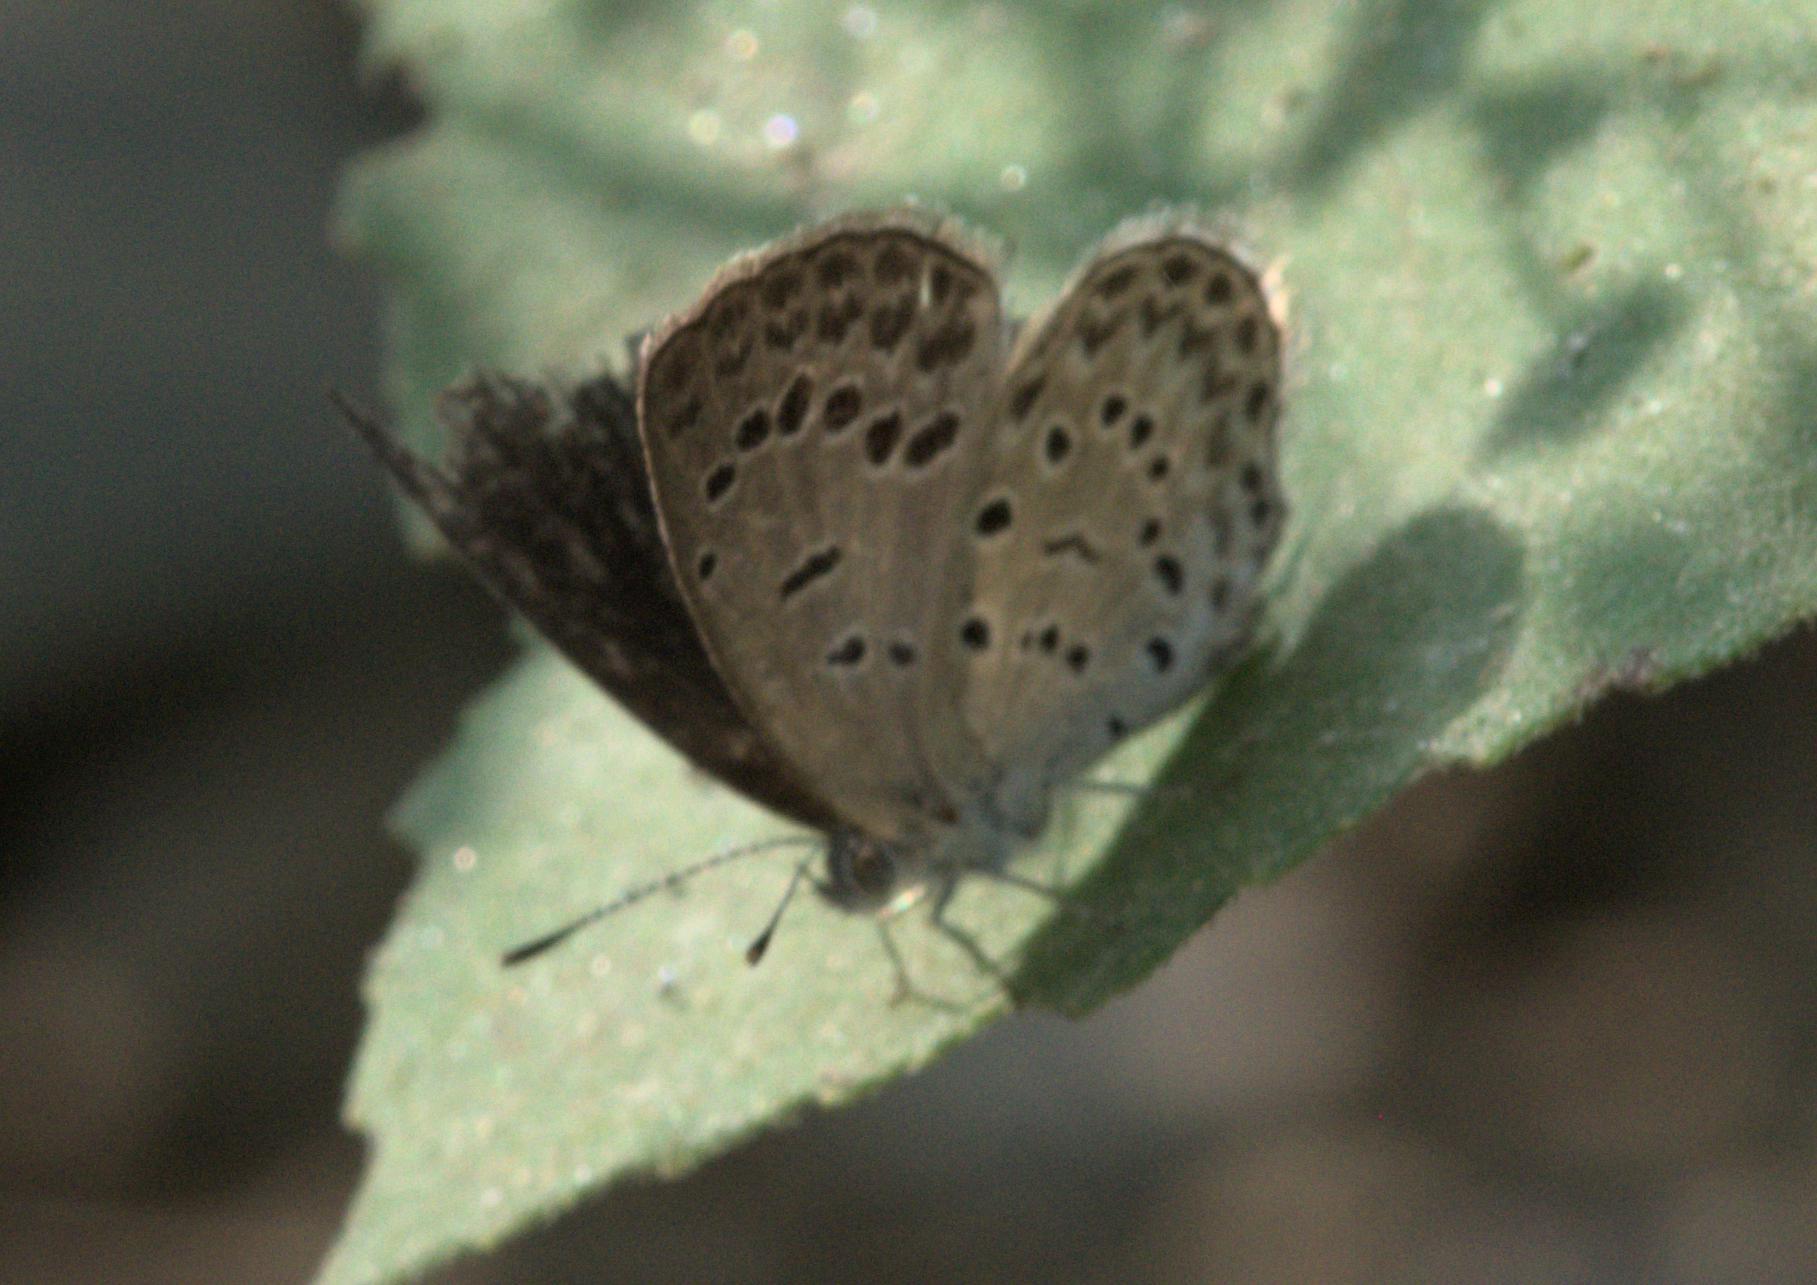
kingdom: Animalia
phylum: Arthropoda
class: Insecta
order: Lepidoptera
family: Lycaenidae
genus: Pseudozizeeria
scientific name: Pseudozizeeria maha
